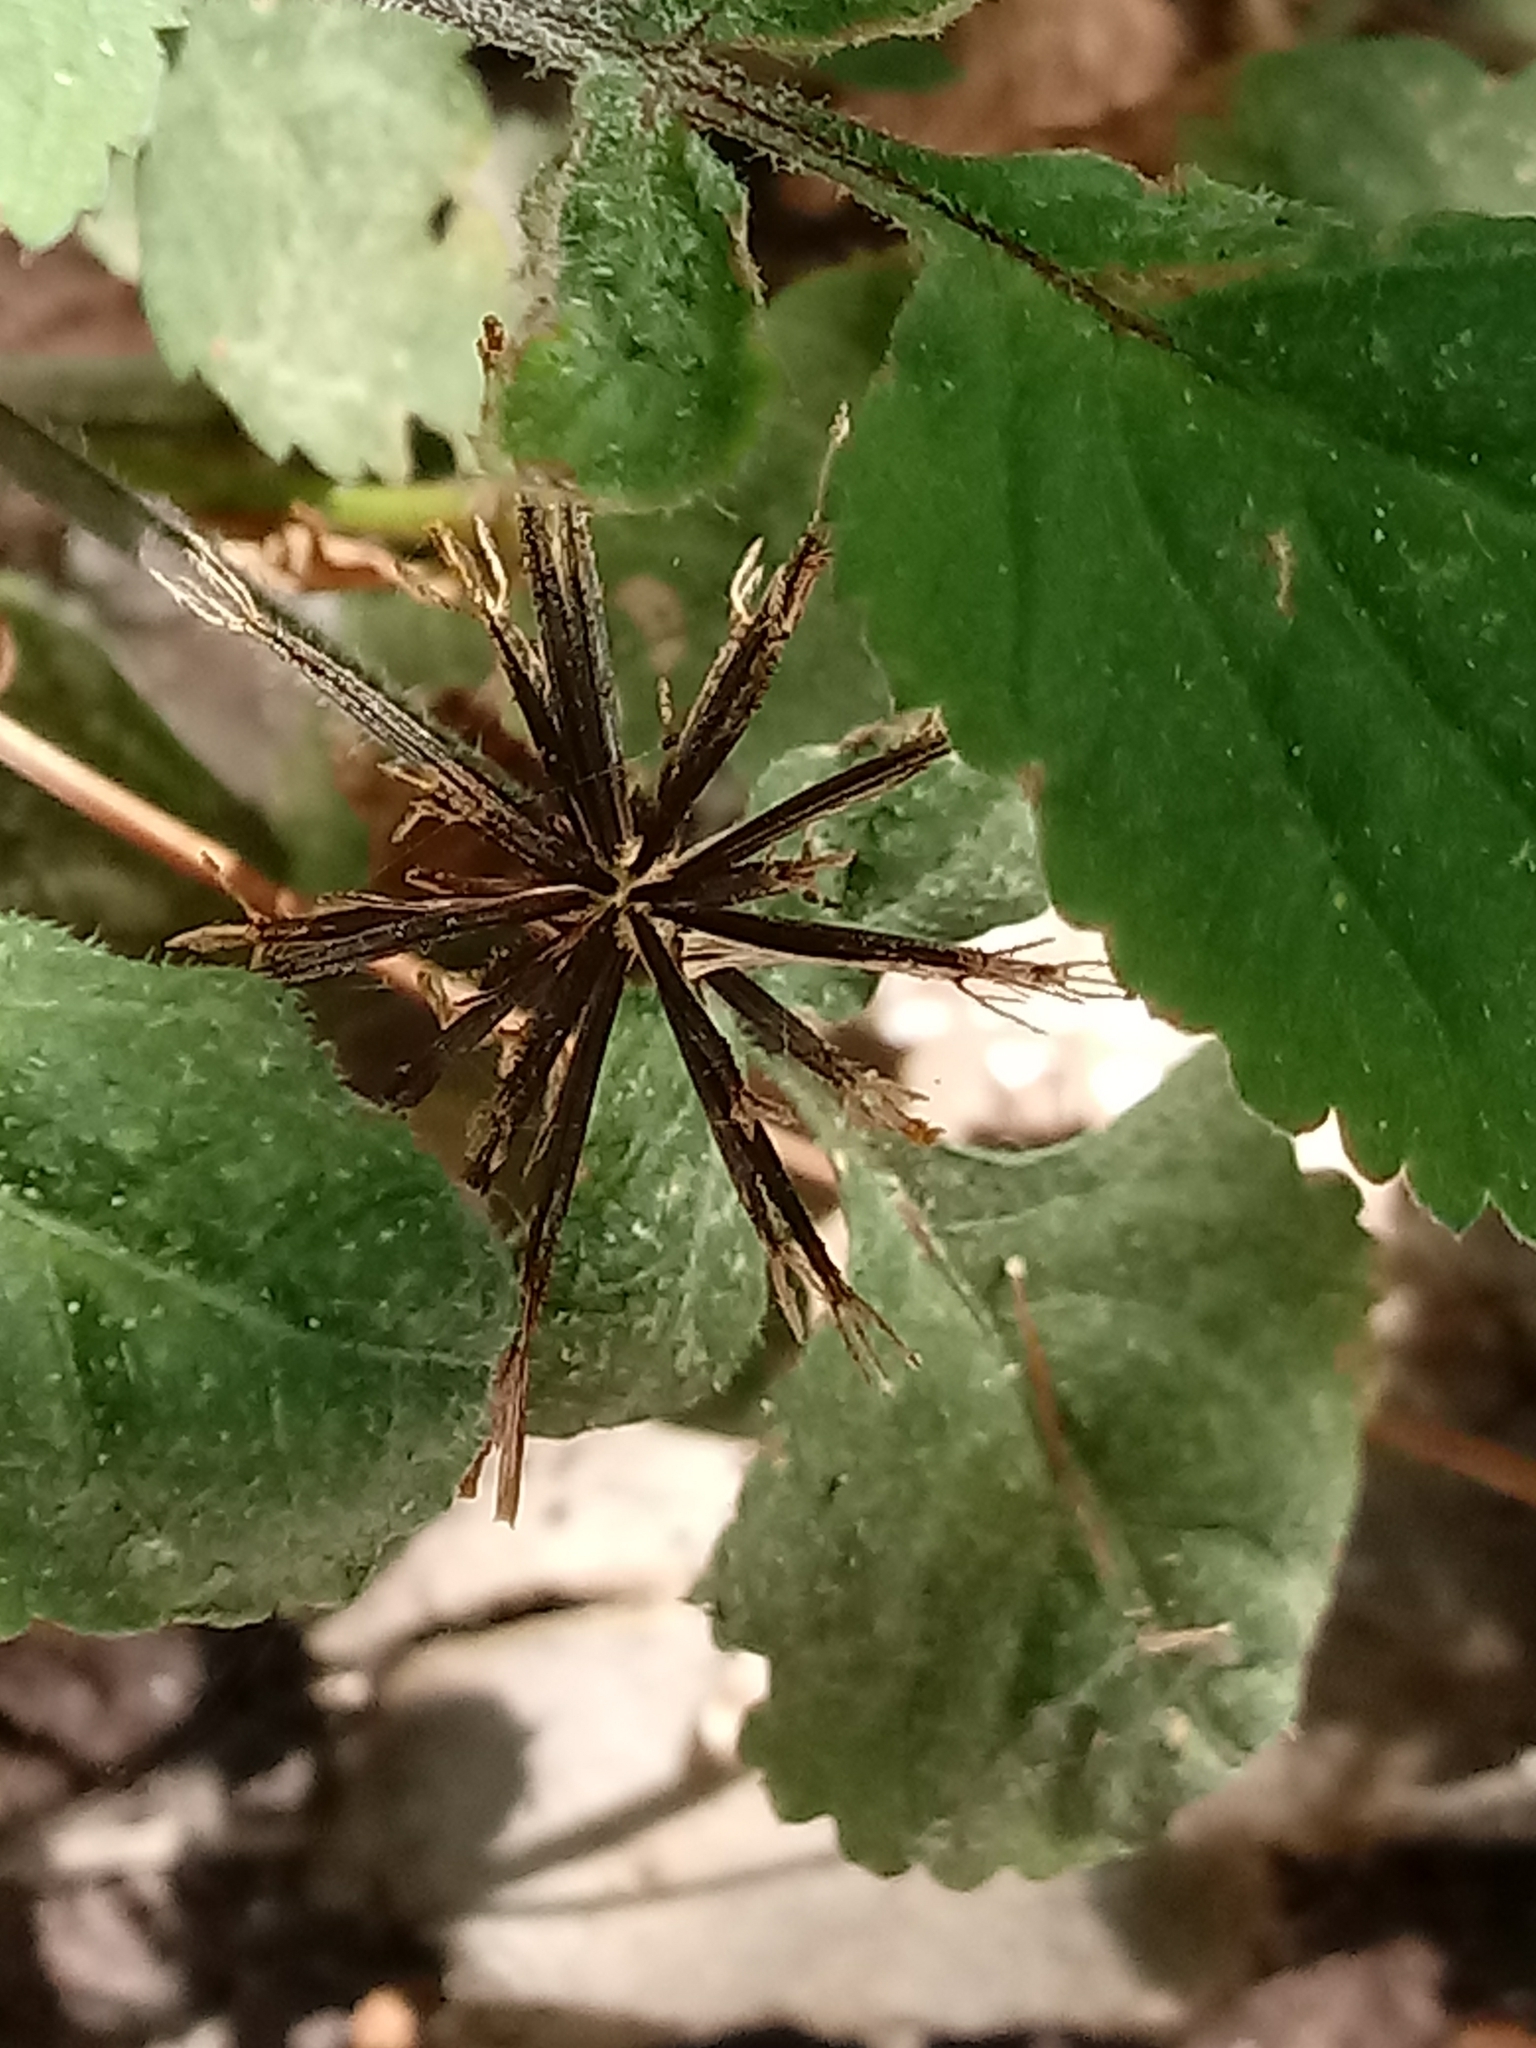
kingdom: Plantae
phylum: Tracheophyta
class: Magnoliopsida
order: Asterales
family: Asteraceae
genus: Bidens
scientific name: Bidens pilosa
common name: Black-jack
